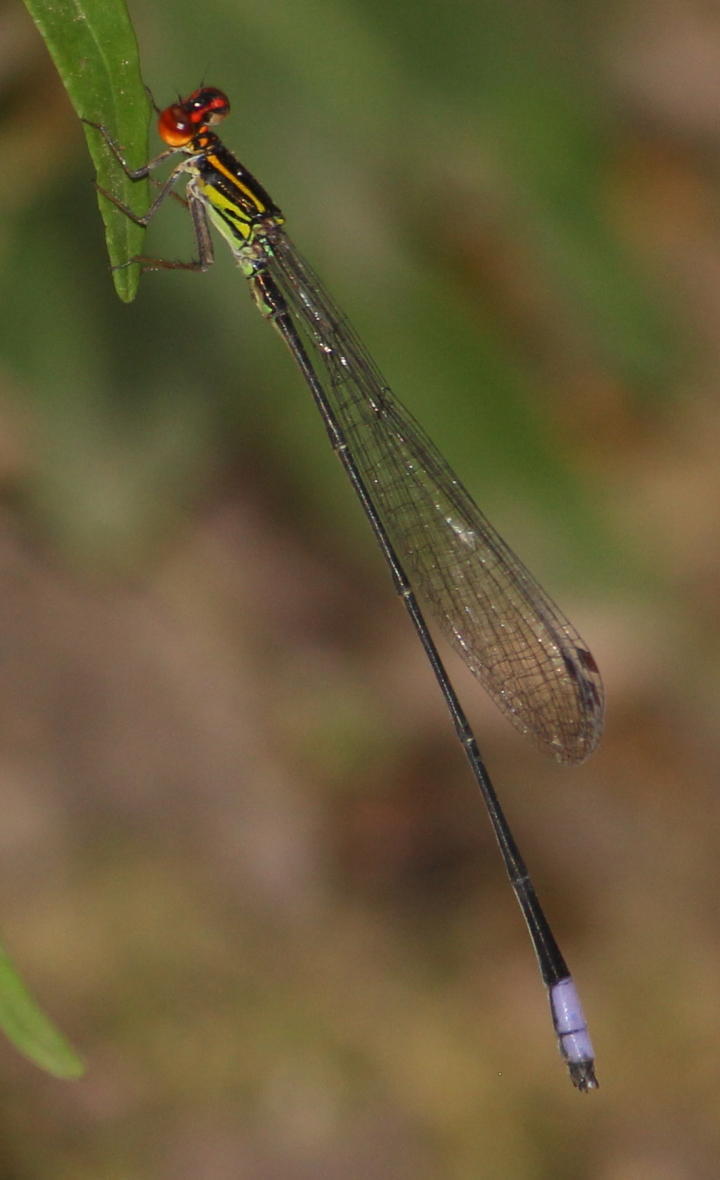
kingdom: Animalia
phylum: Arthropoda
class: Insecta
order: Odonata
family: Coenagrionidae
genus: Pseudagrion
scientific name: Pseudagrion hageni
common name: Painted sprite
